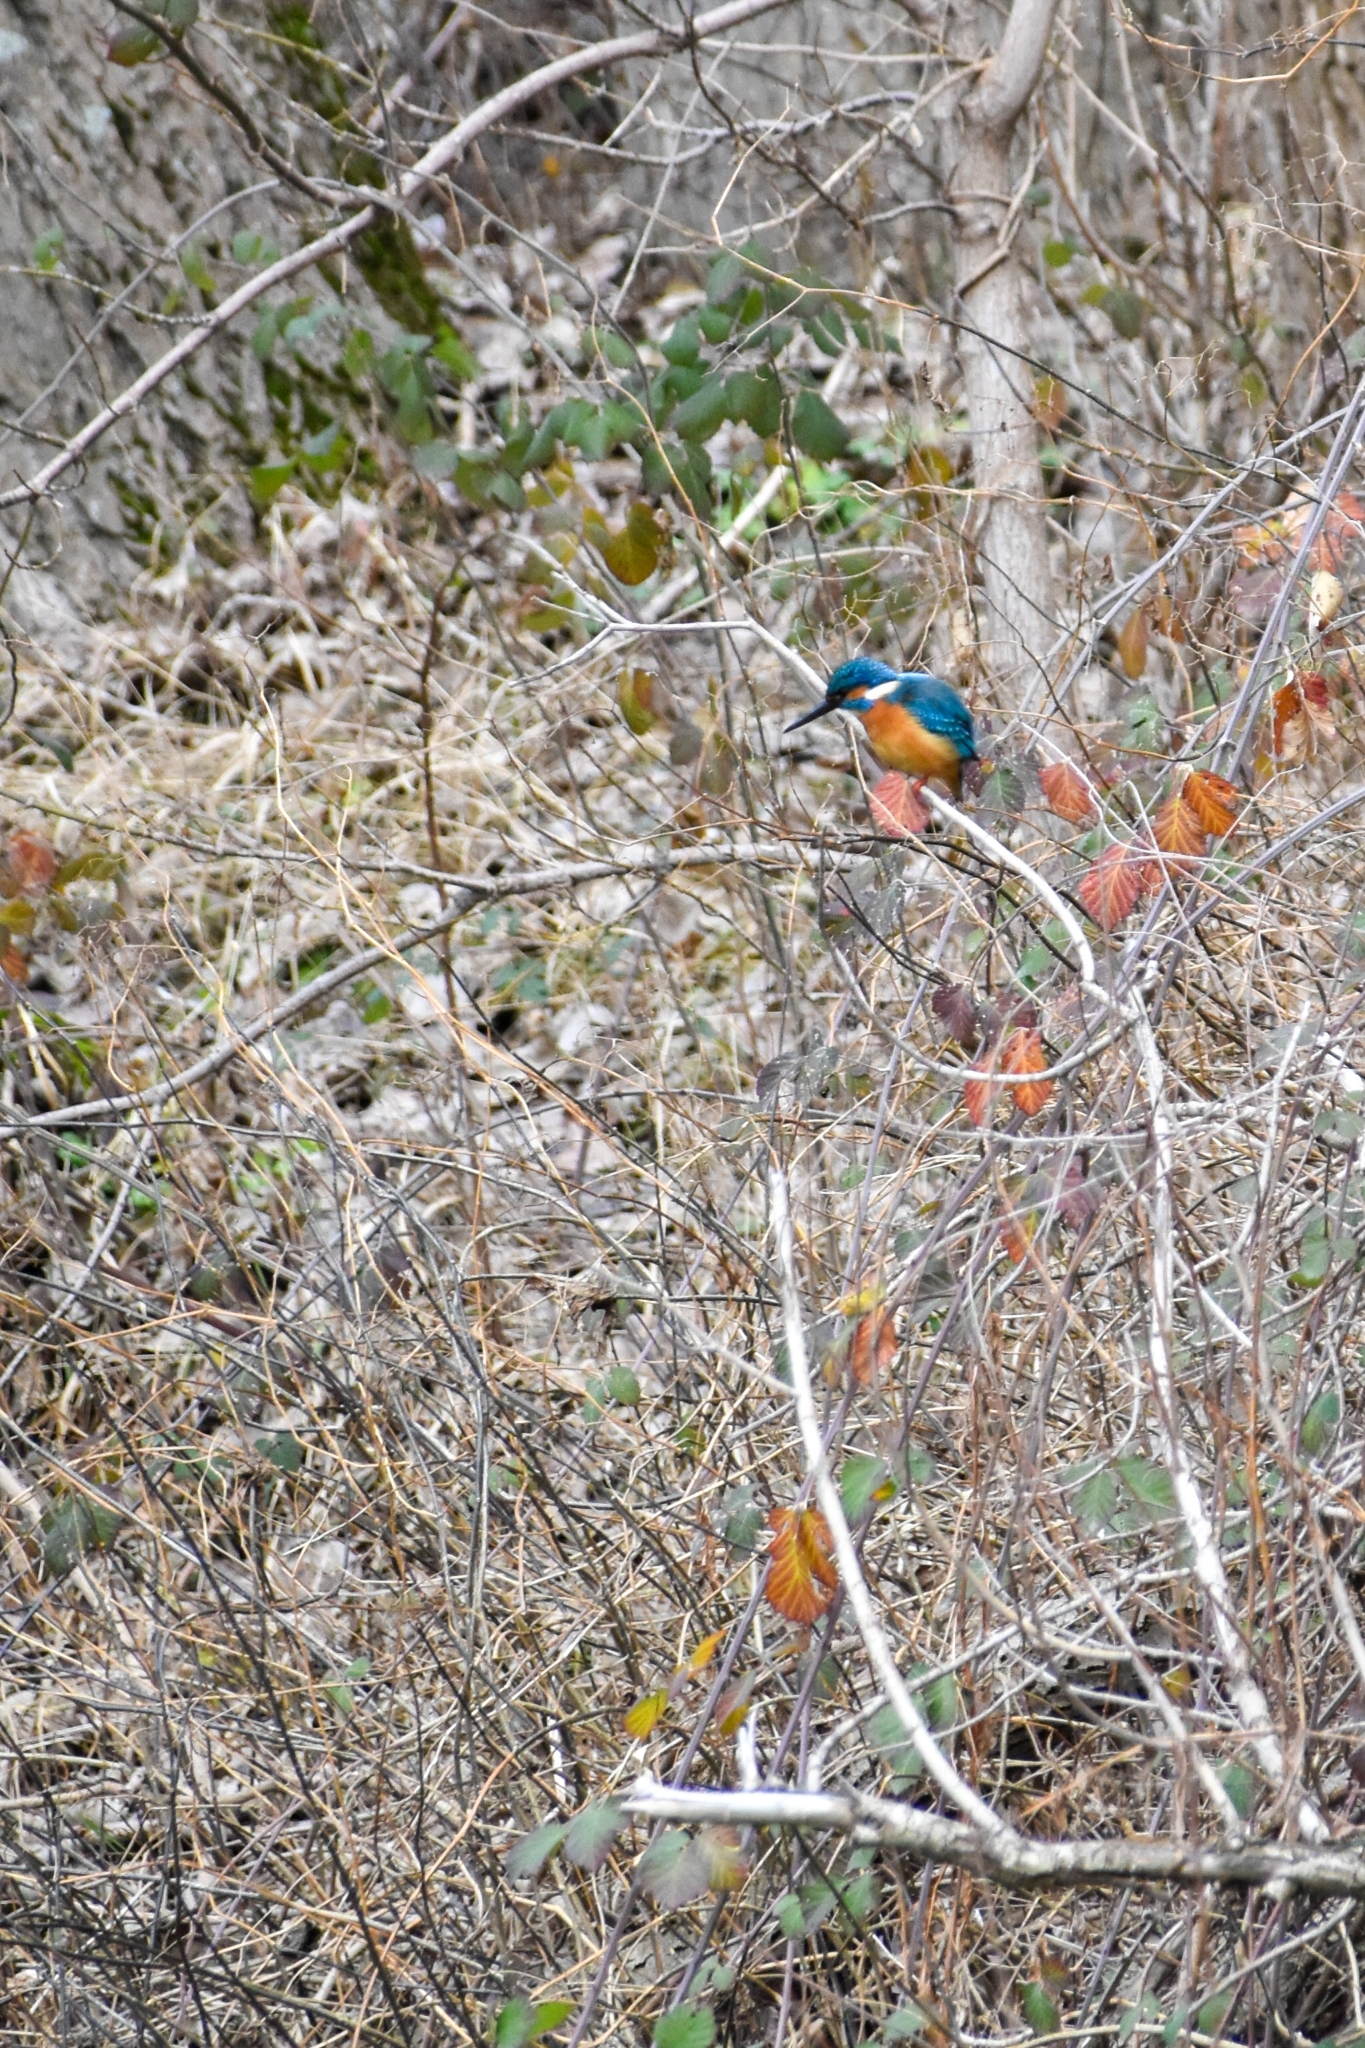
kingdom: Animalia
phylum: Chordata
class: Aves
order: Coraciiformes
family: Alcedinidae
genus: Alcedo
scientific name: Alcedo atthis
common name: Common kingfisher
